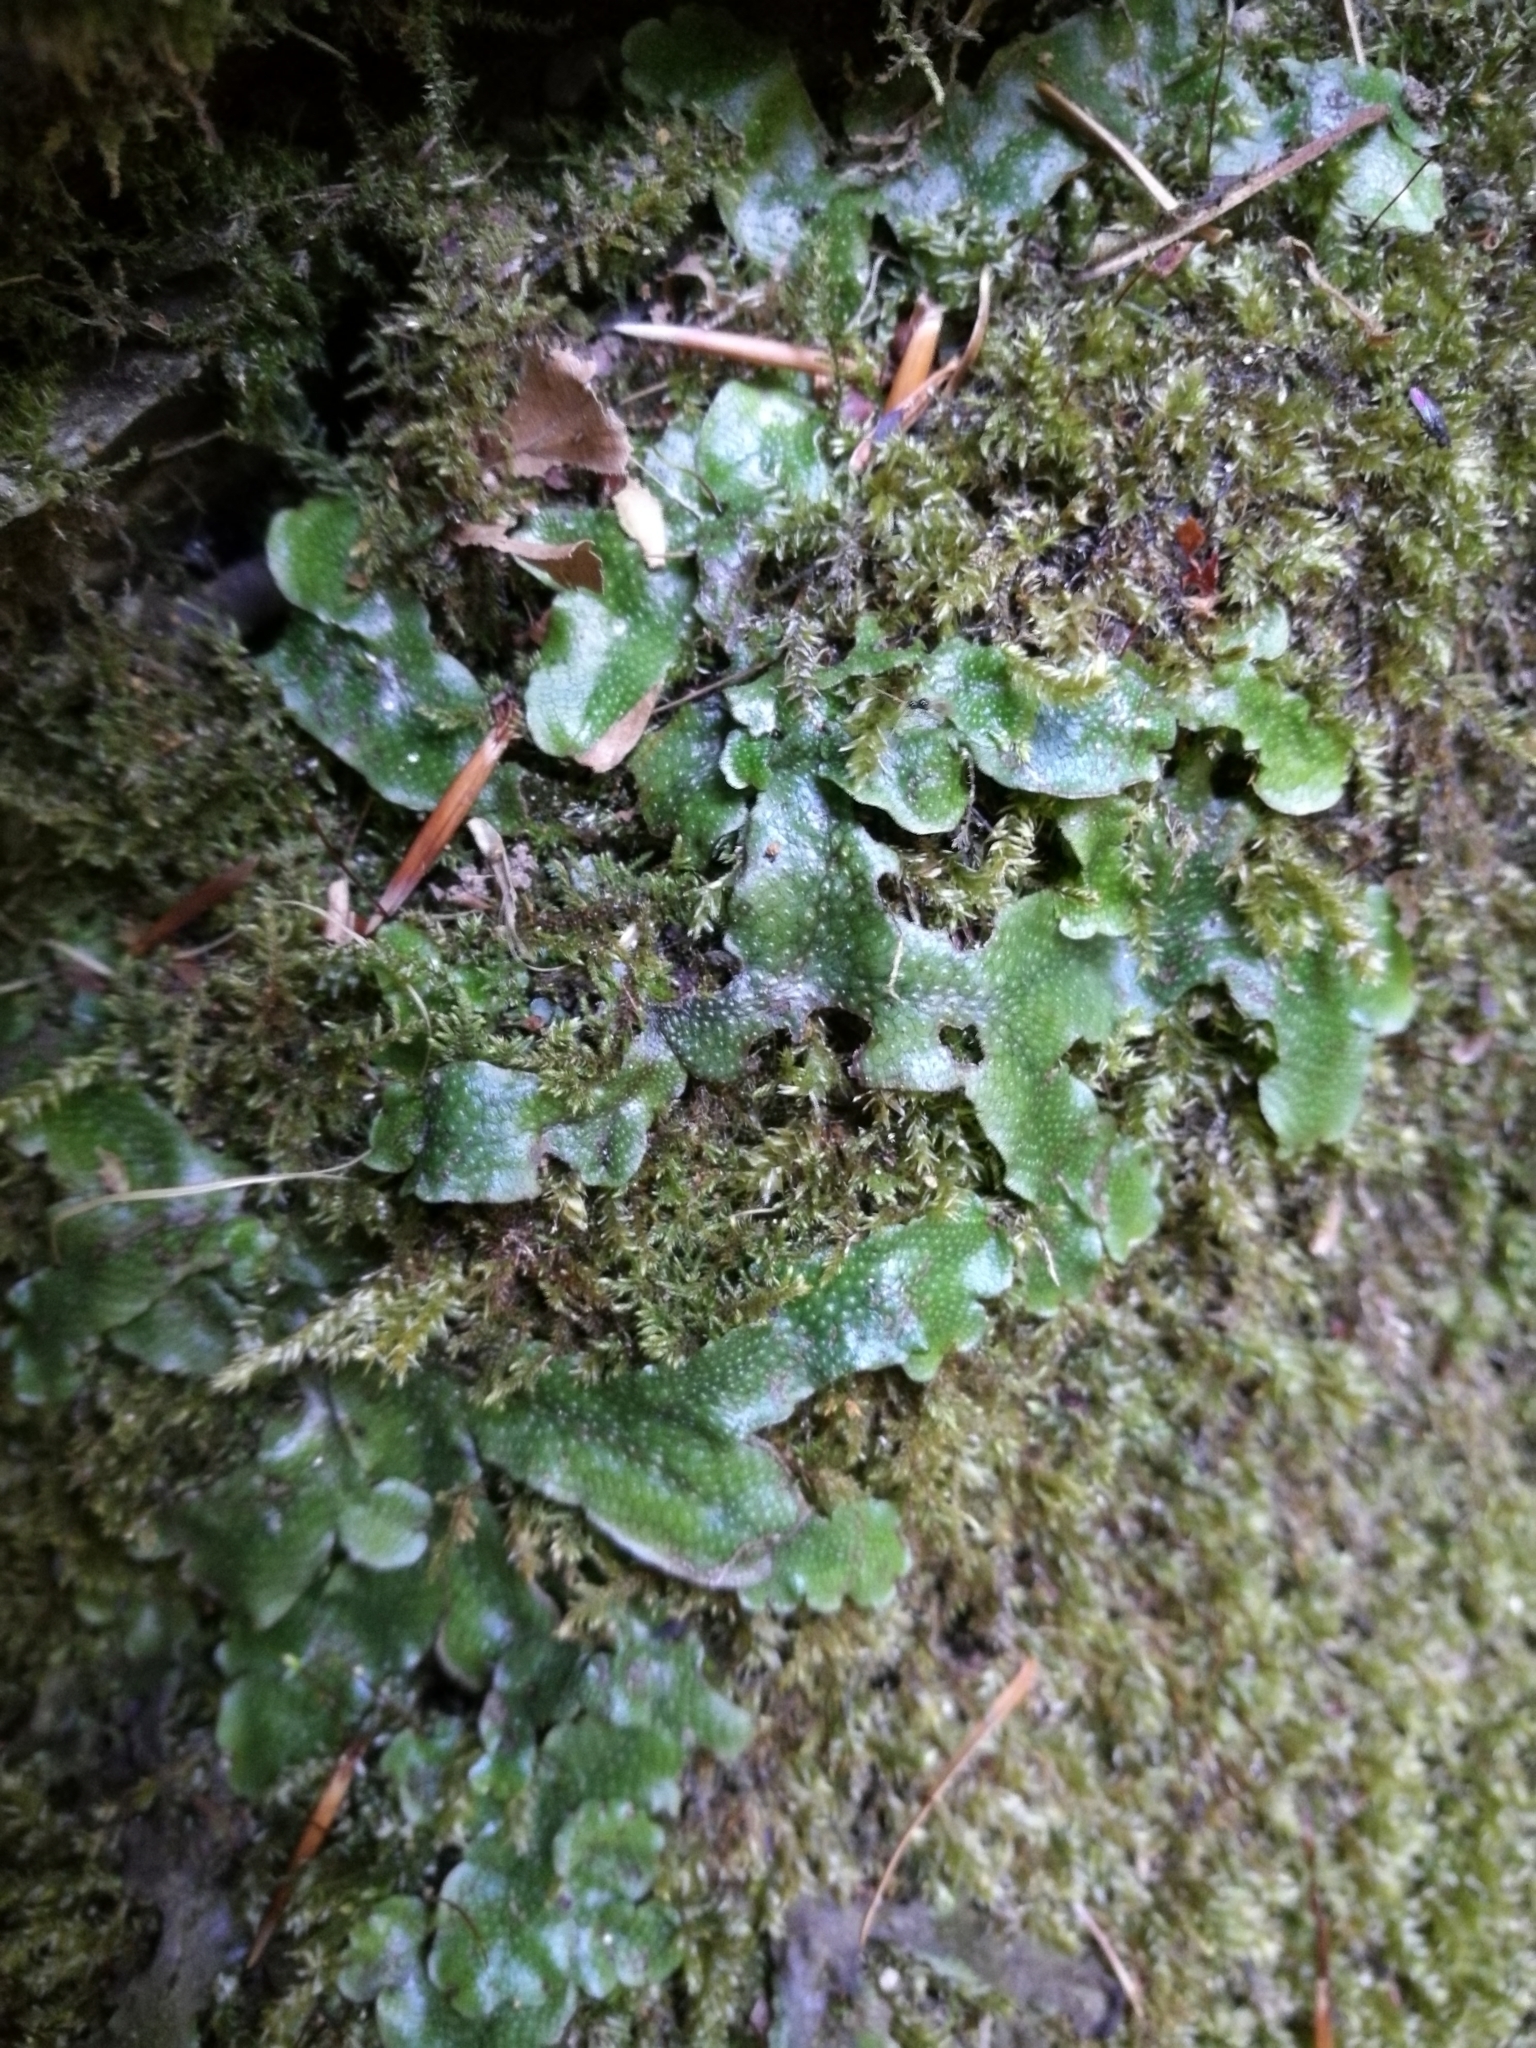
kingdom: Plantae
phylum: Marchantiophyta
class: Marchantiopsida
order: Marchantiales
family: Conocephalaceae
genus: Conocephalum
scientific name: Conocephalum conicum
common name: Great scented liverwort
